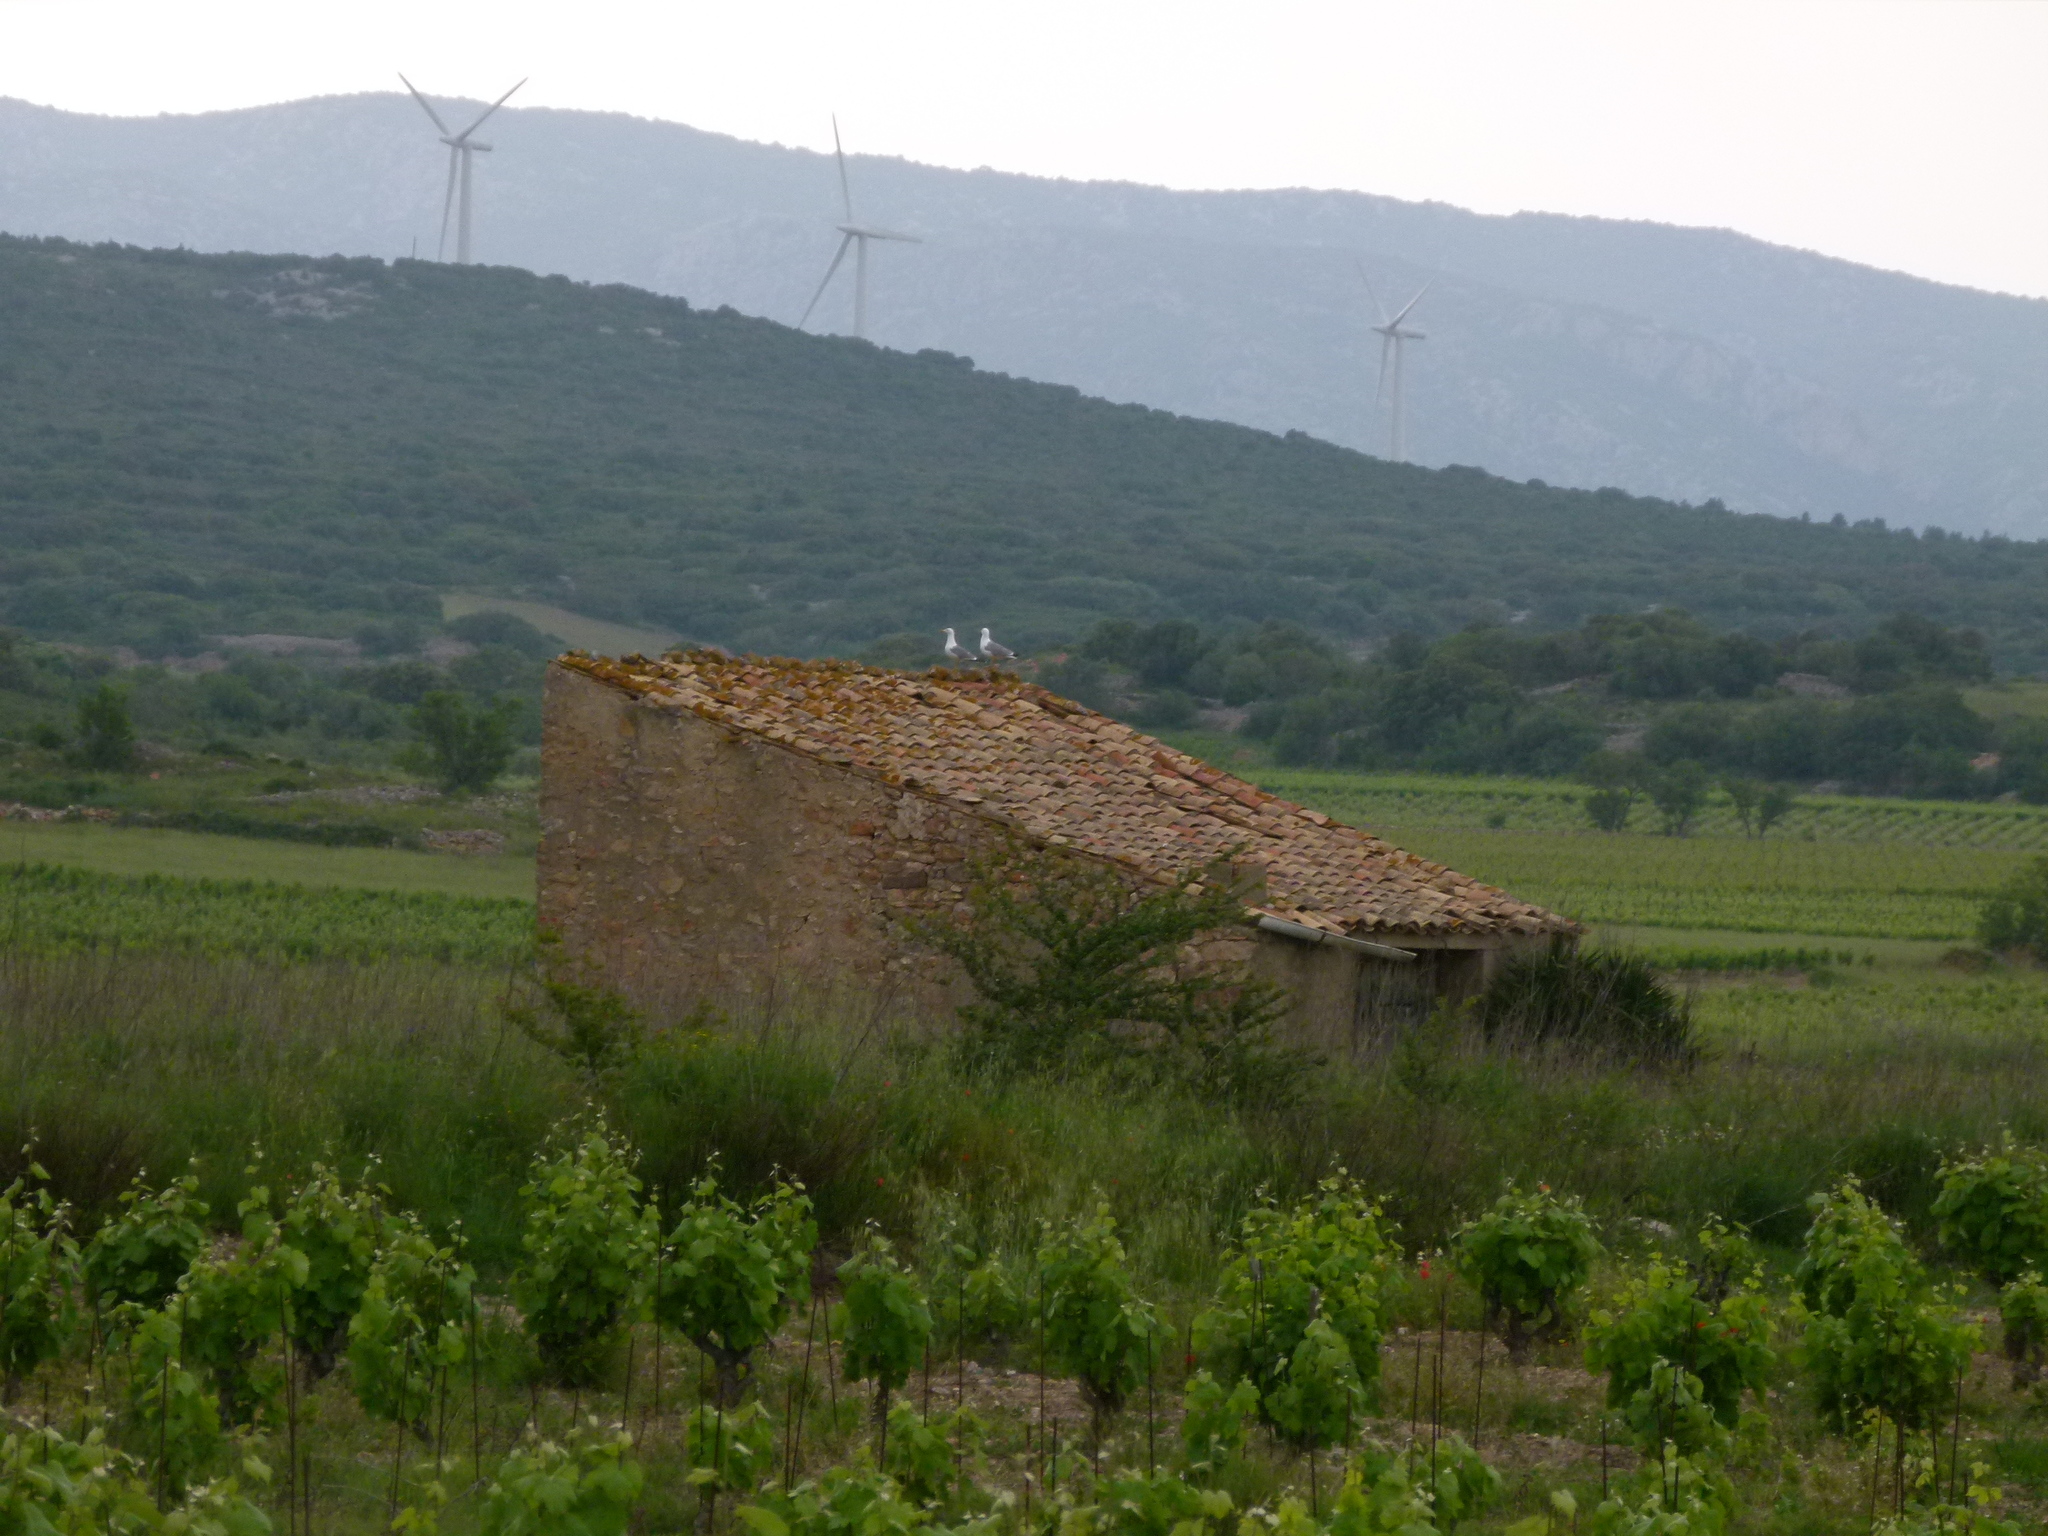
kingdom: Animalia
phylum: Chordata
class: Aves
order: Charadriiformes
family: Laridae
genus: Larus
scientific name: Larus michahellis
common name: Yellow-legged gull
